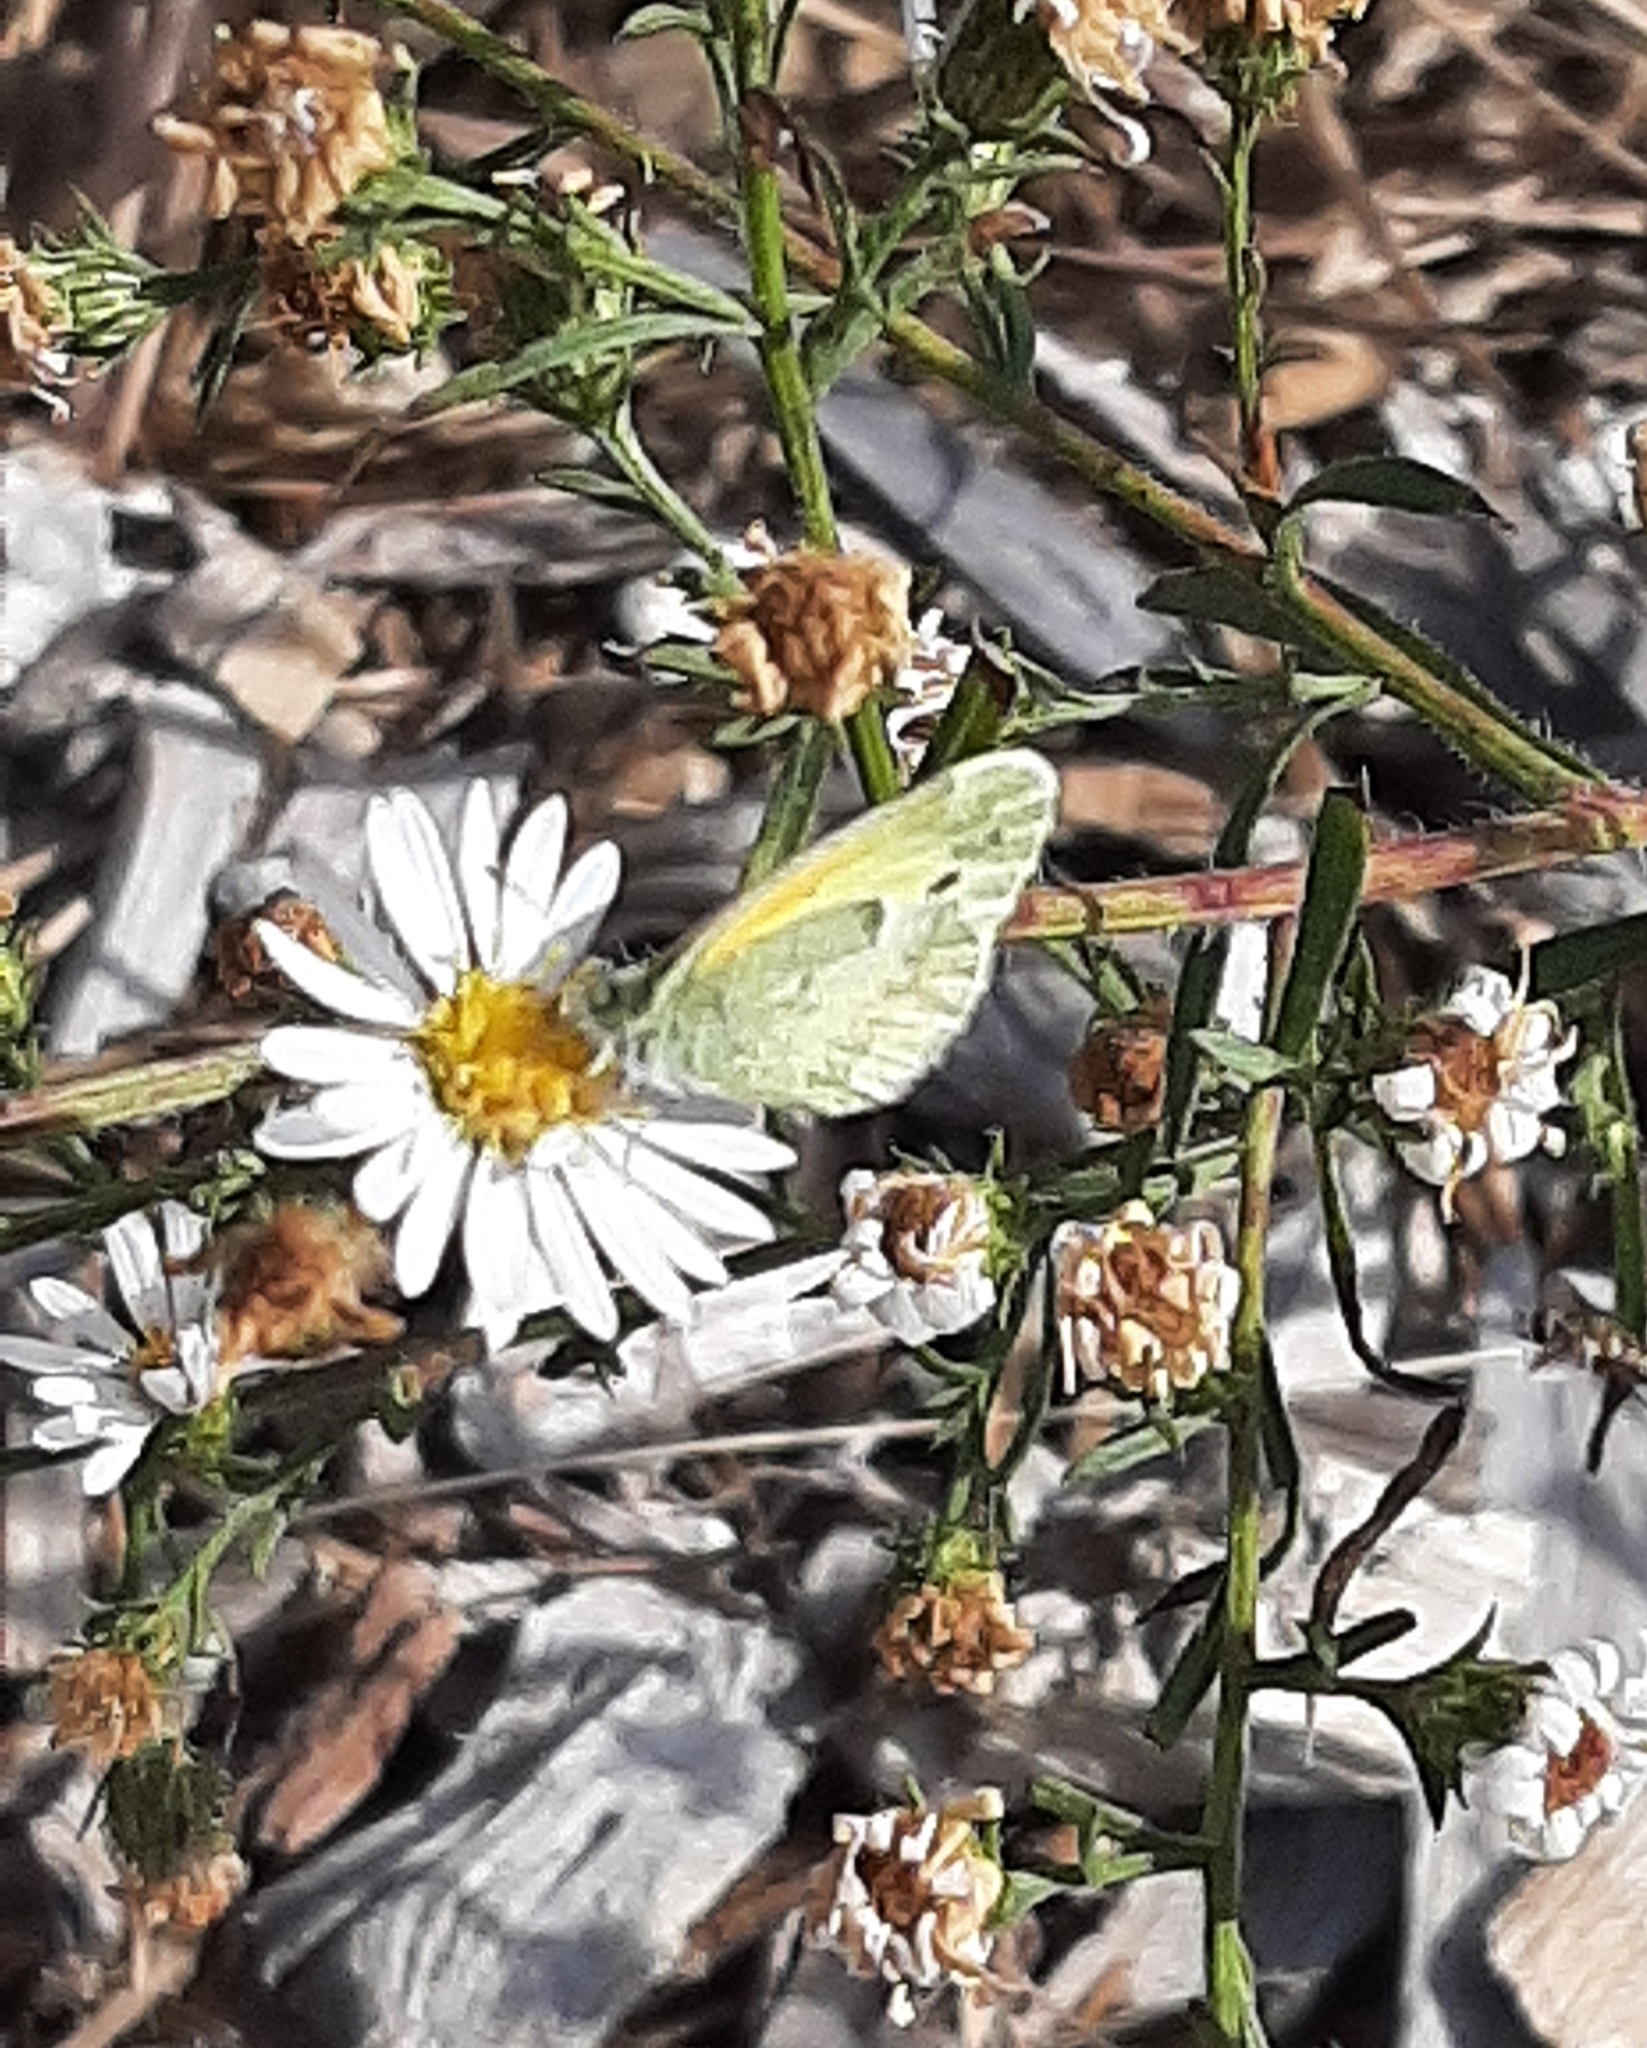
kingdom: Animalia
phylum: Arthropoda
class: Insecta
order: Lepidoptera
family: Pieridae
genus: Nathalis
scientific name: Nathalis iole
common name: Dainty sulphur
